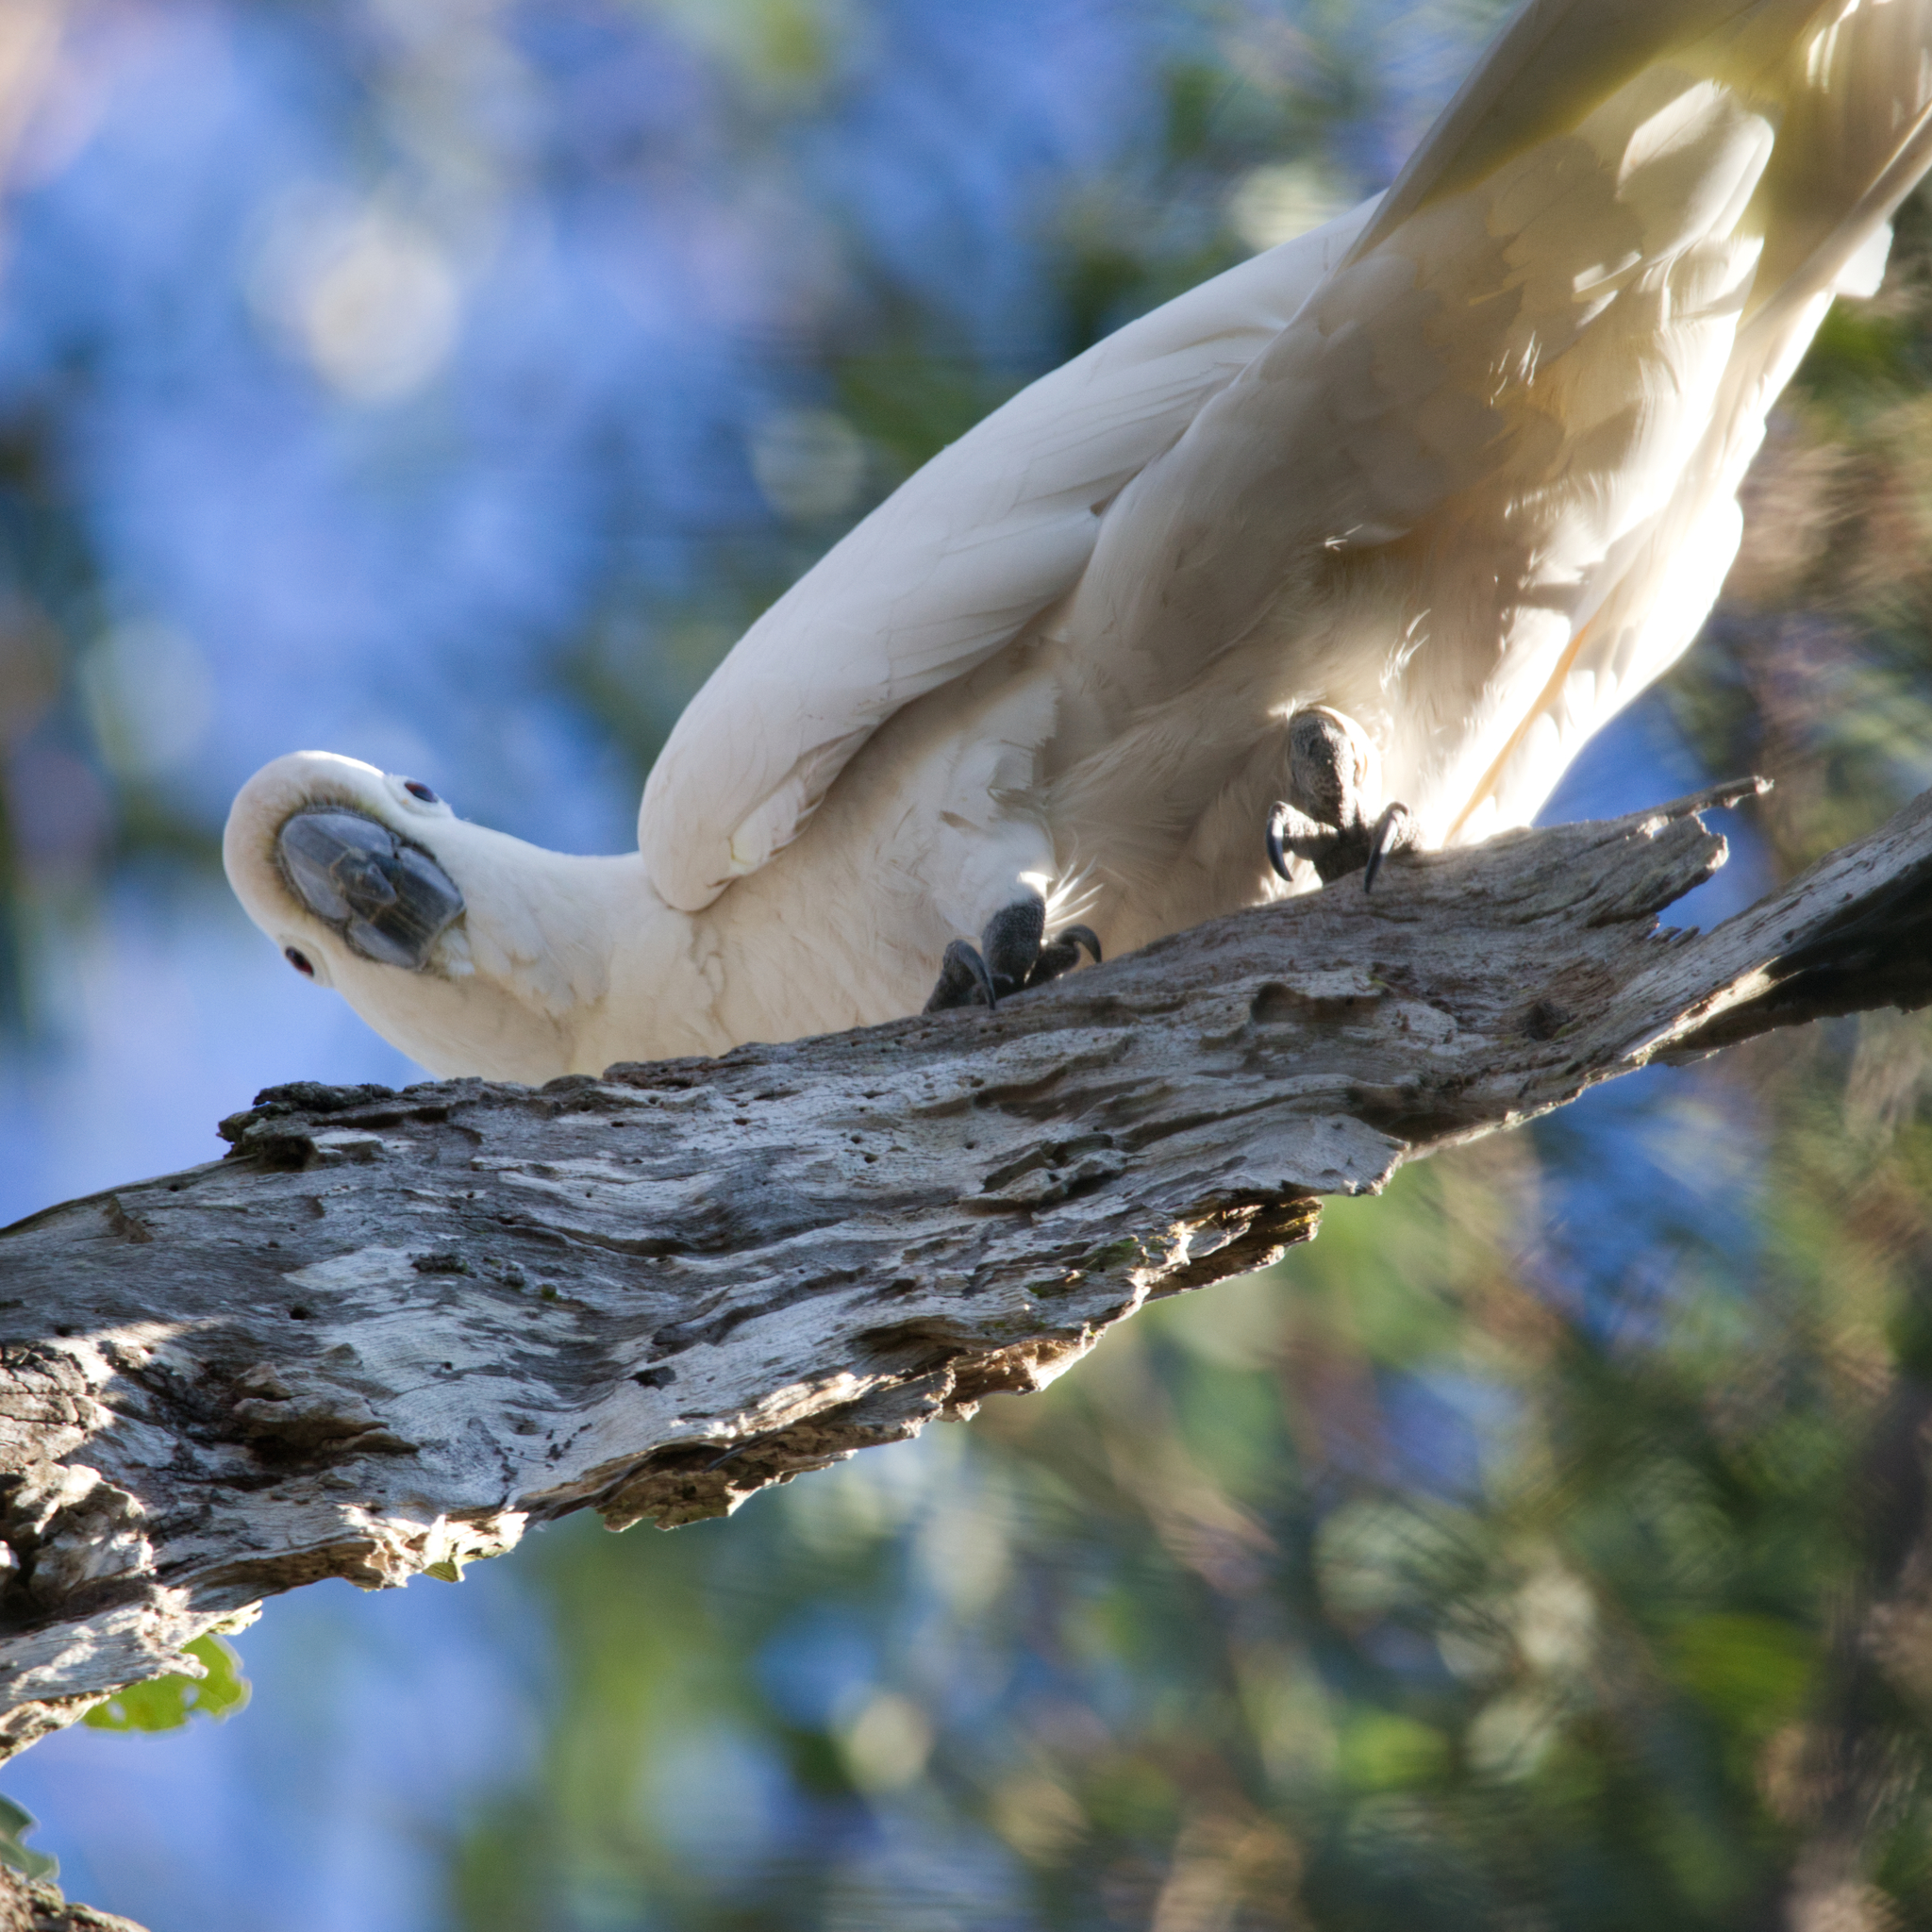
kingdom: Animalia
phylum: Chordata
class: Aves
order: Psittaciformes
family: Psittacidae
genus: Cacatua
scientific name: Cacatua galerita
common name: Sulphur-crested cockatoo
